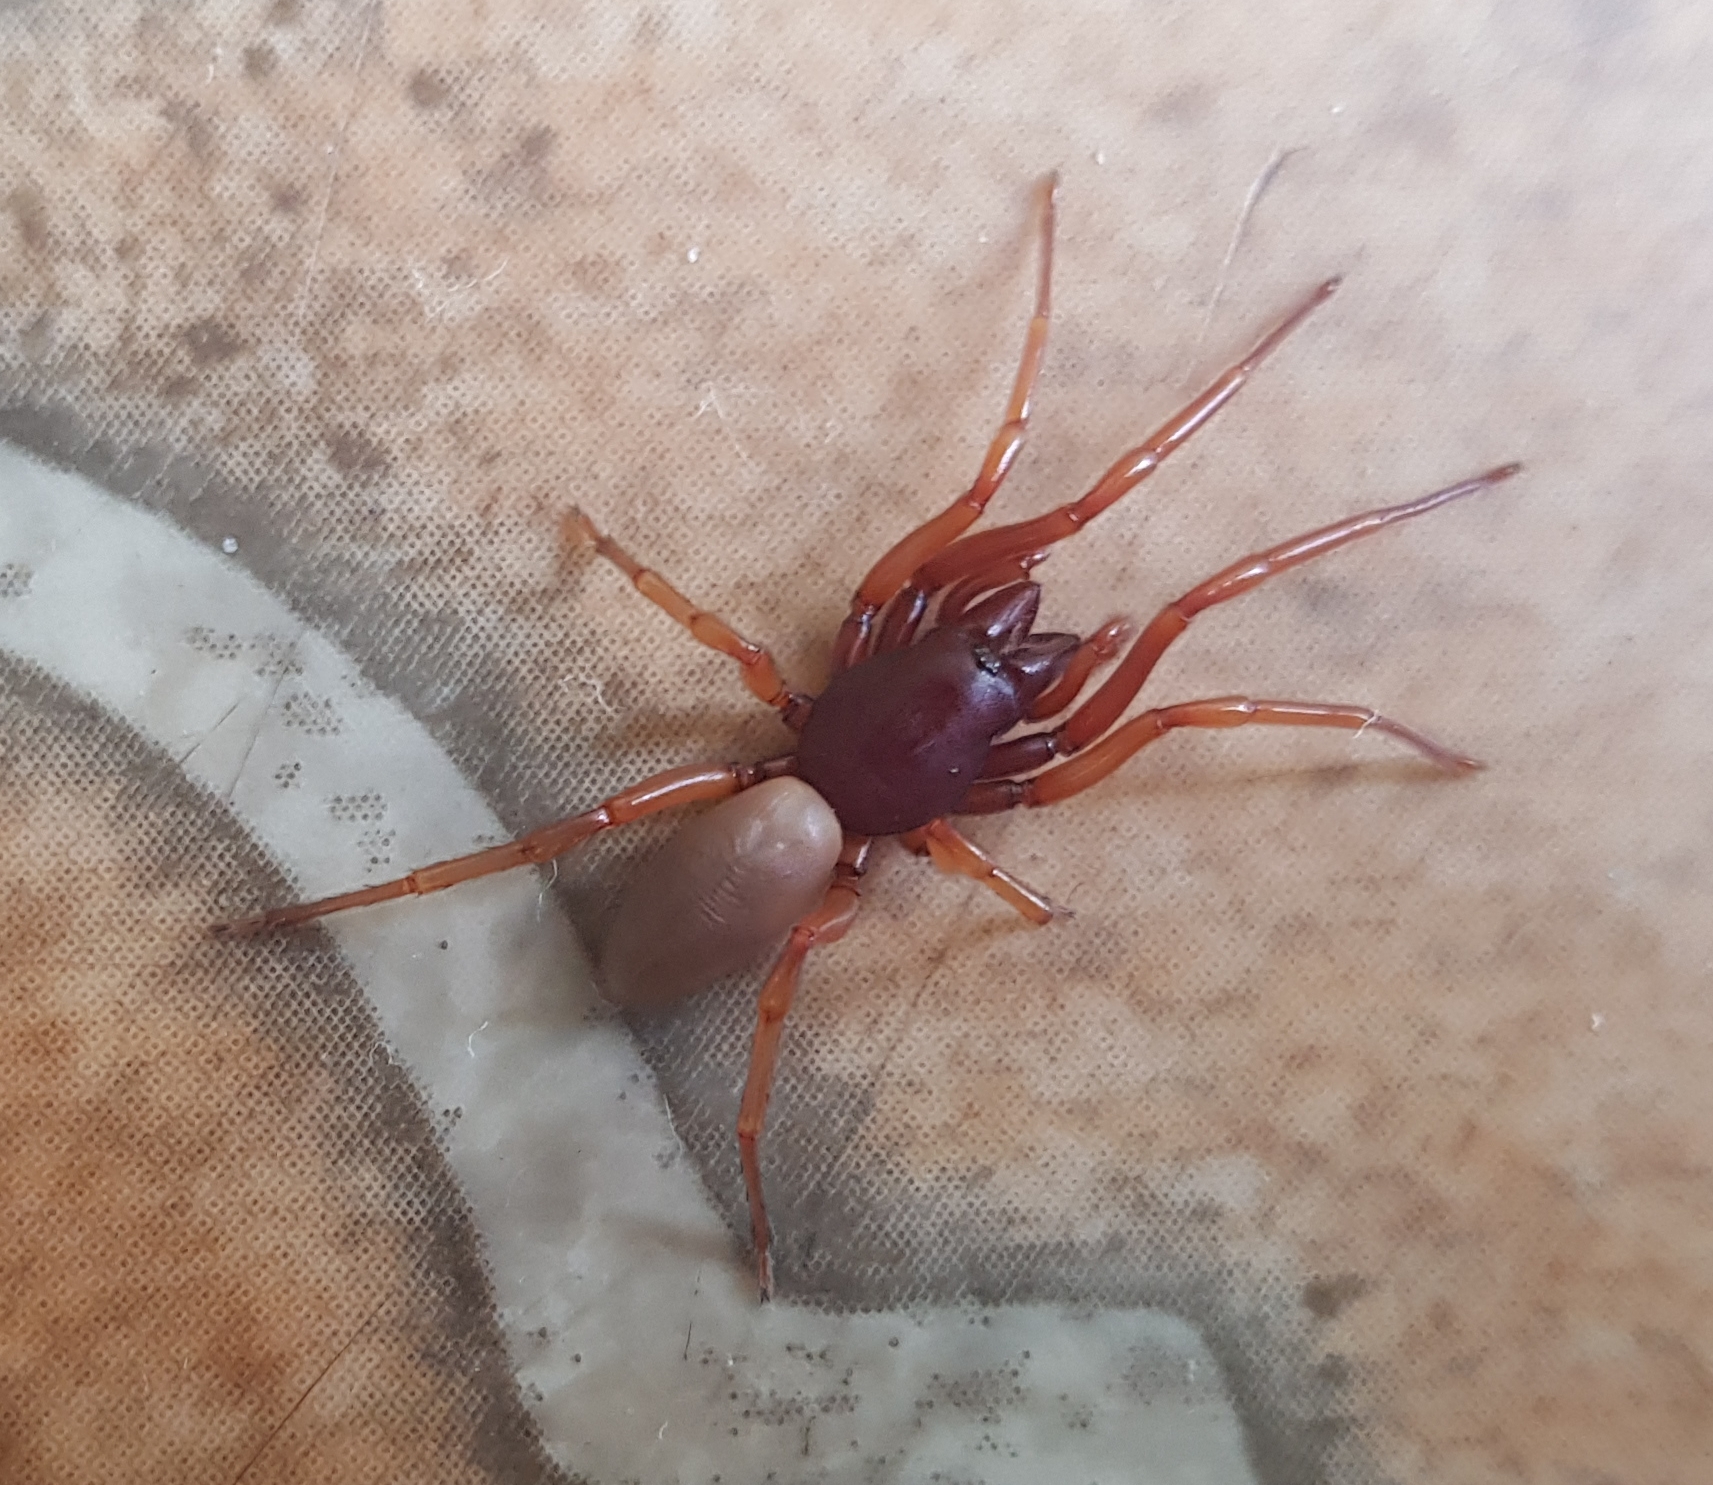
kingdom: Animalia
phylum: Arthropoda
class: Arachnida
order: Araneae
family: Dysderidae
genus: Dysdera
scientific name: Dysdera crocata
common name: Woodlouse spider
